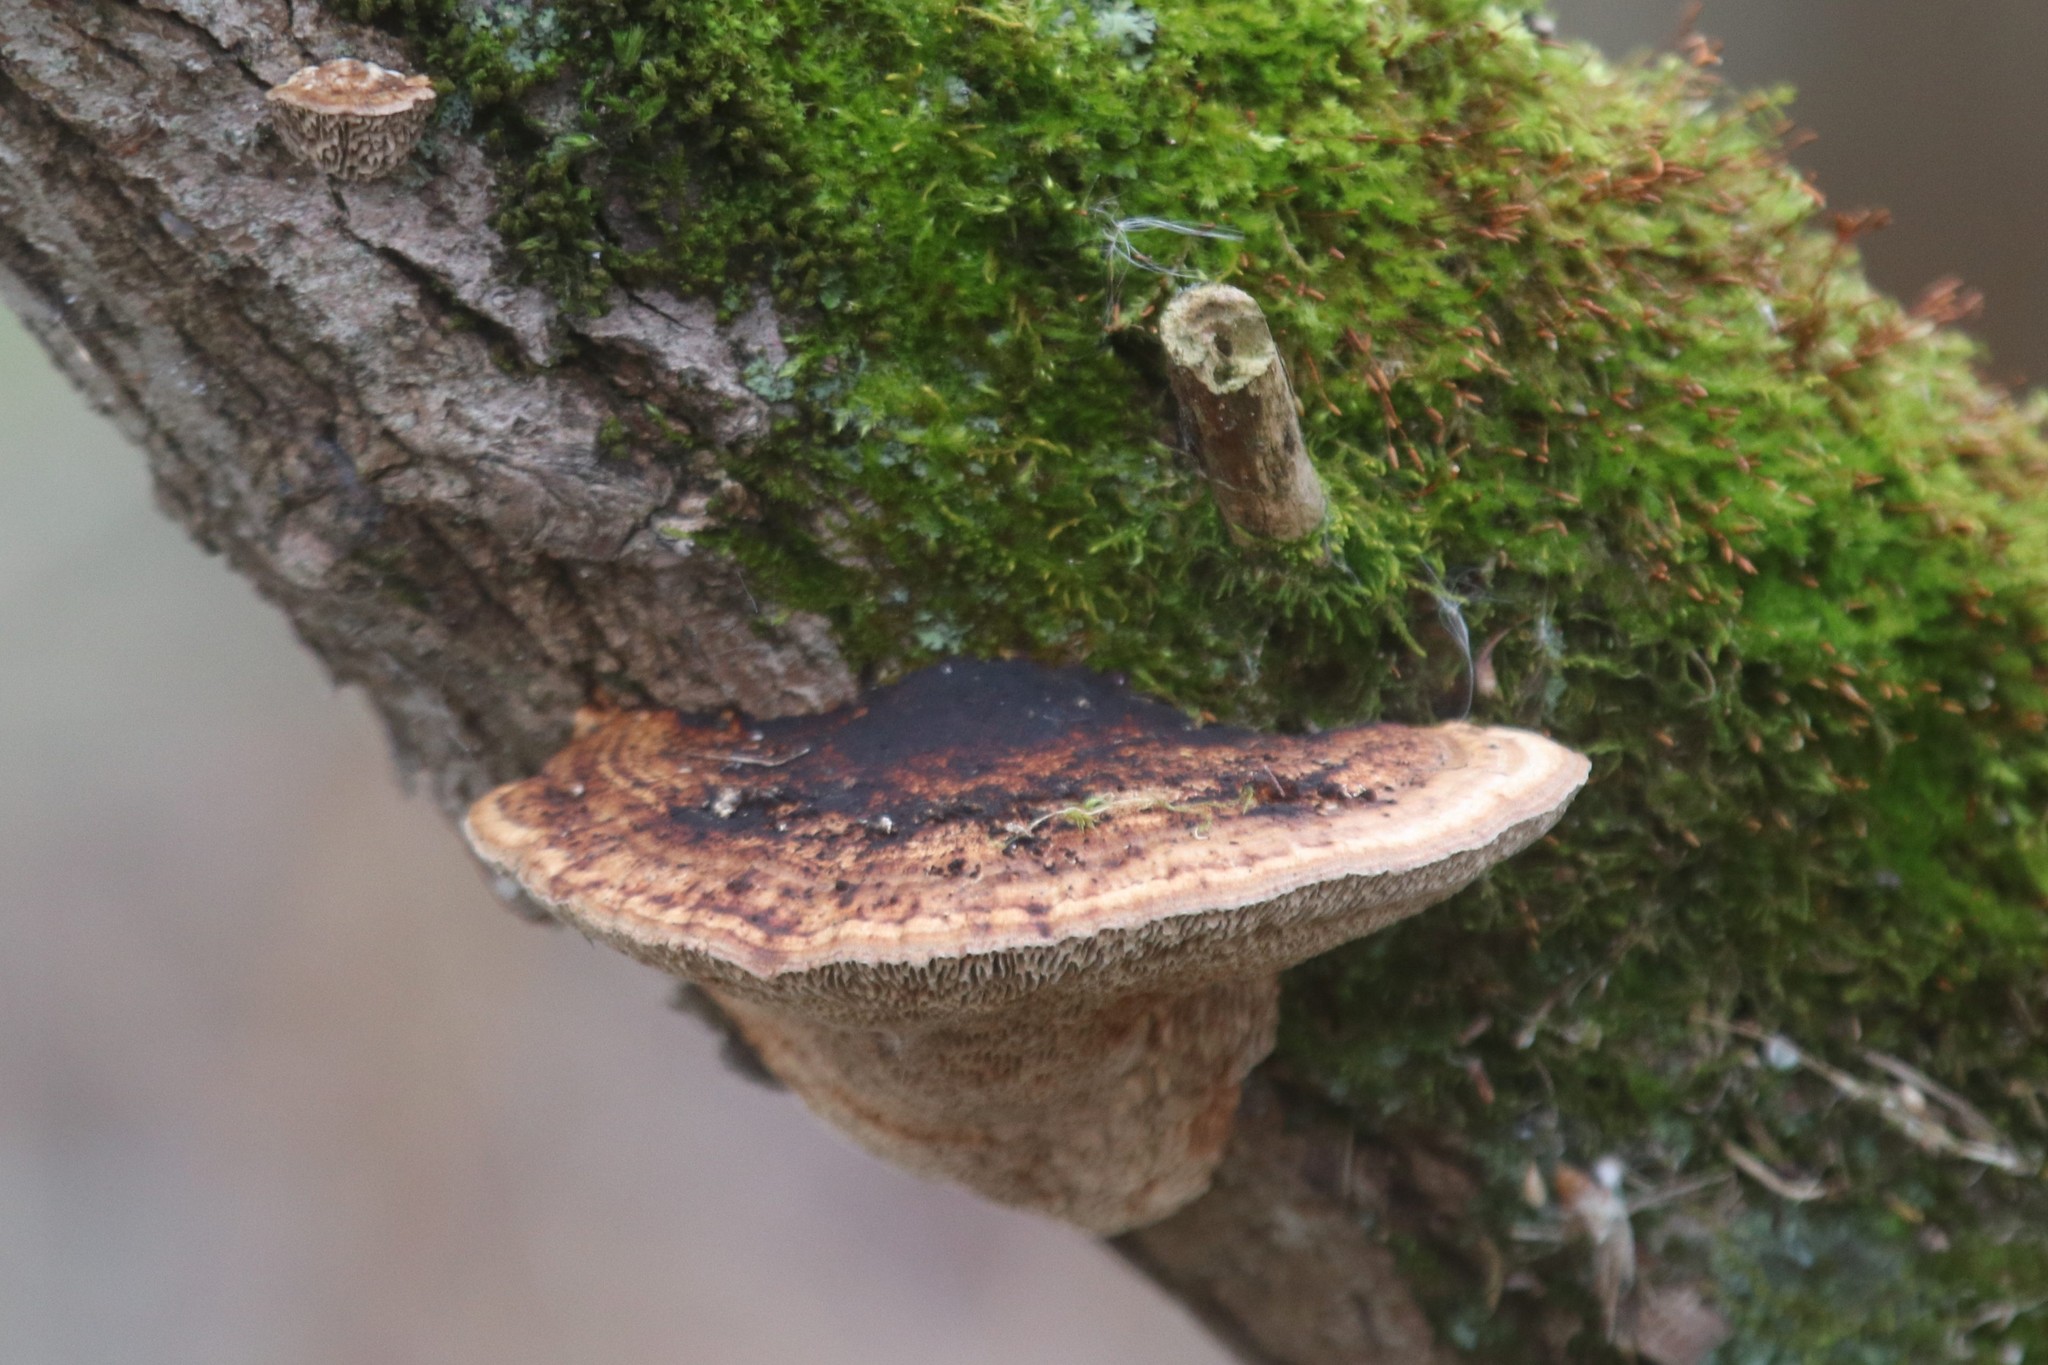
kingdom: Fungi
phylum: Basidiomycota
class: Agaricomycetes
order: Polyporales
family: Polyporaceae
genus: Daedaleopsis
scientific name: Daedaleopsis confragosa
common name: Blushing bracket
